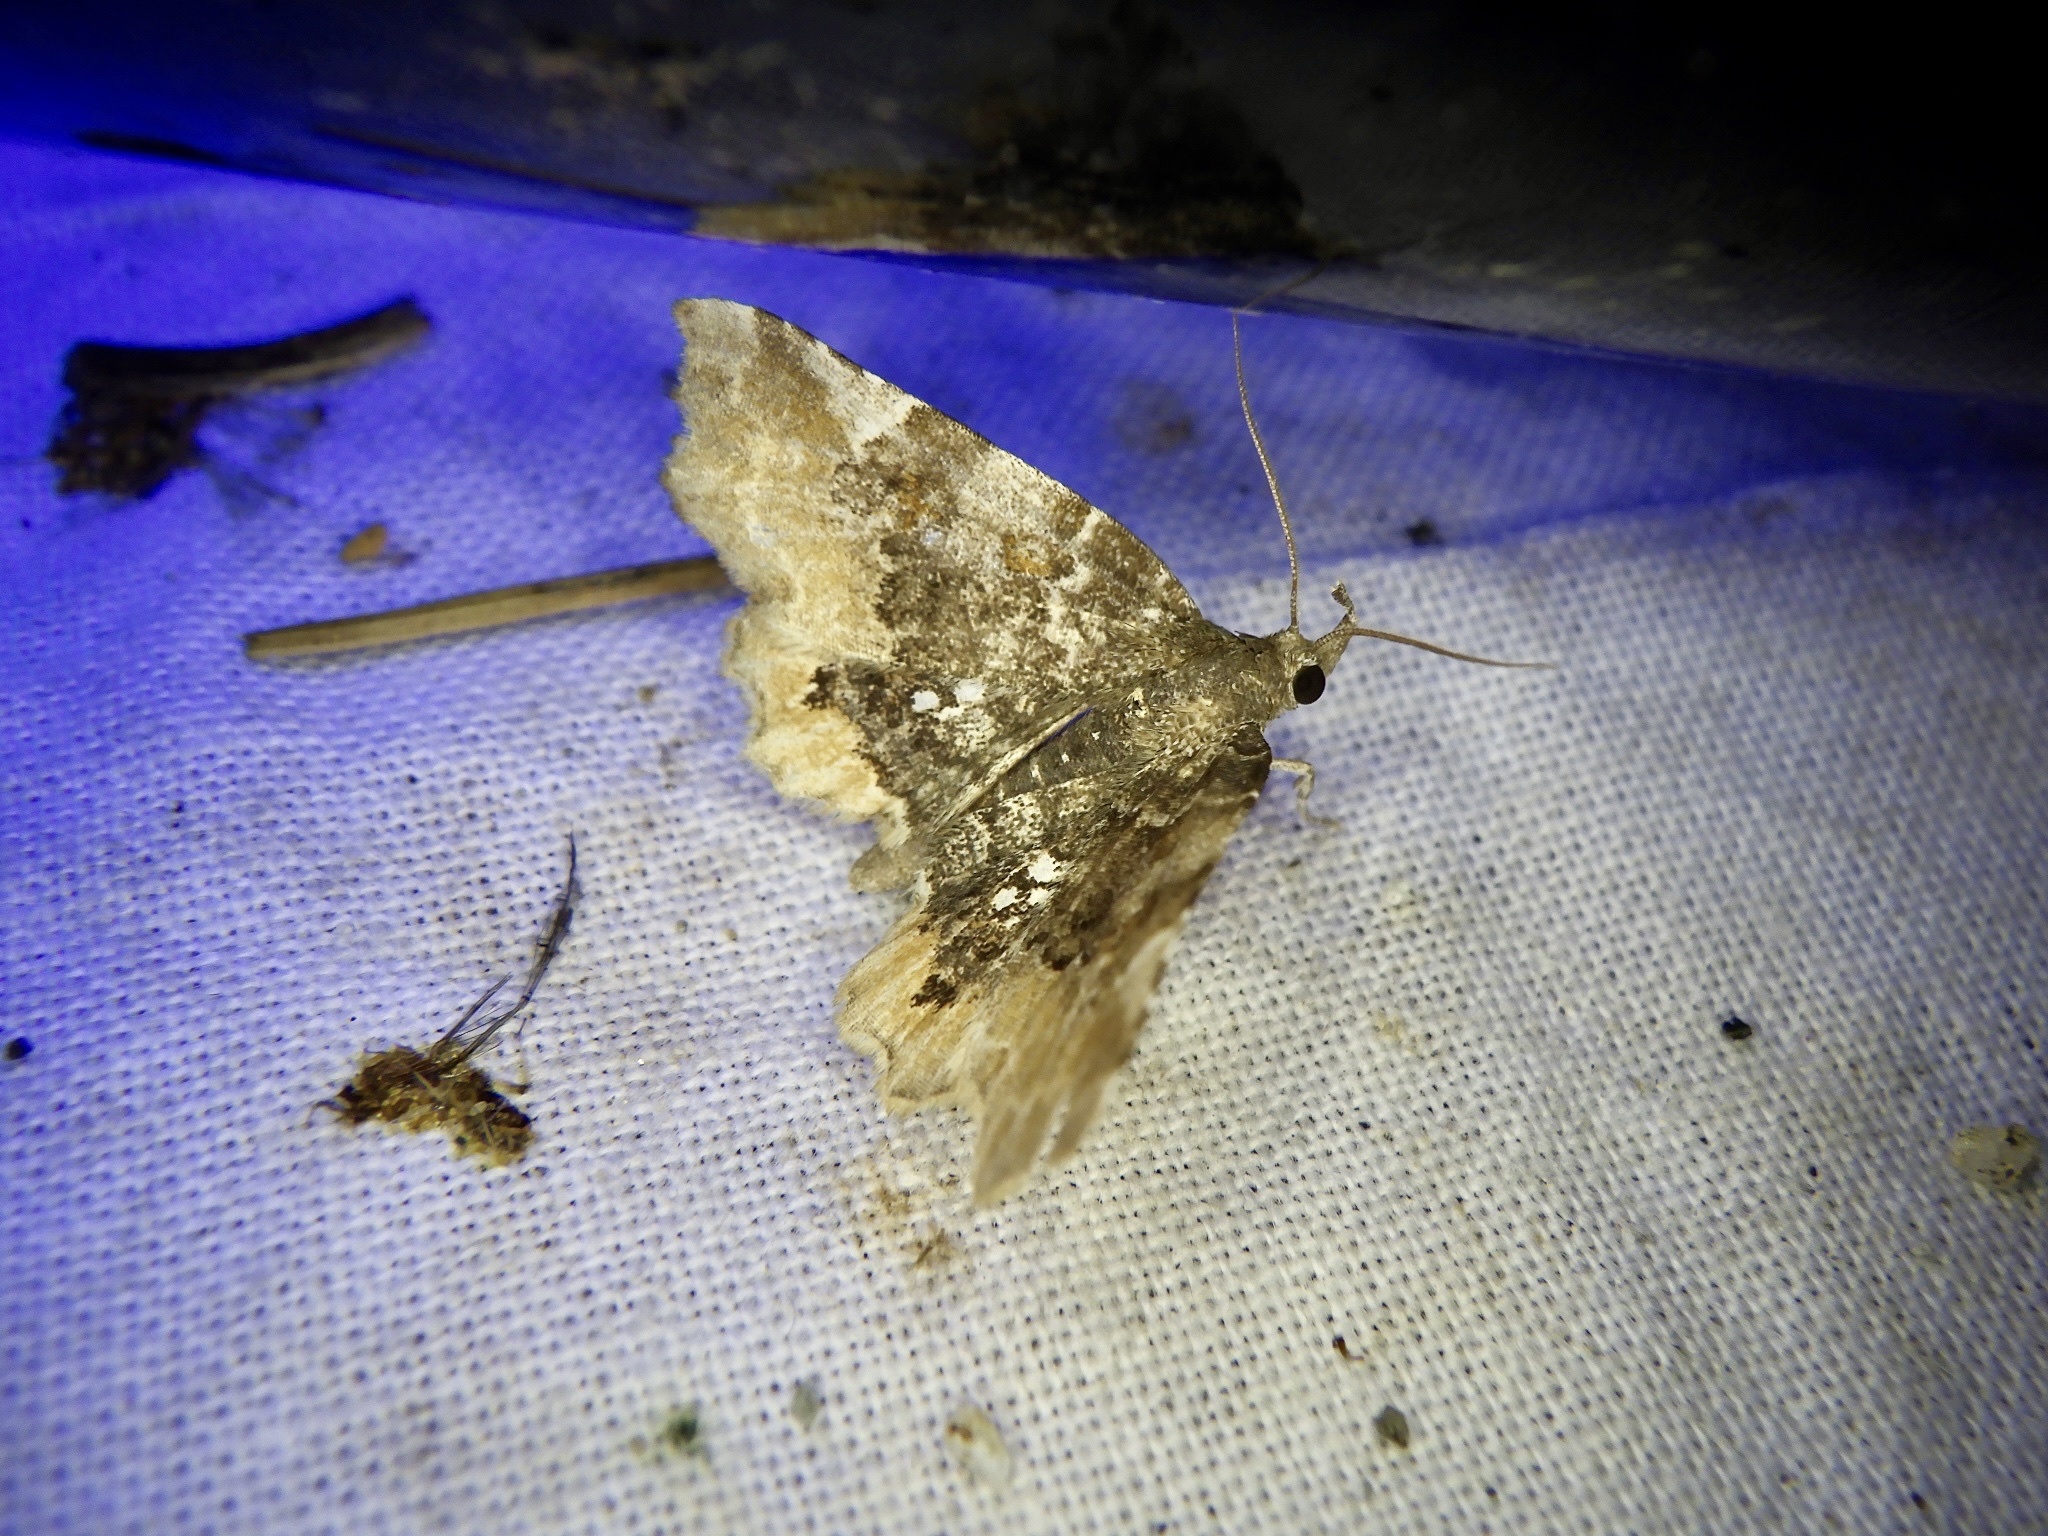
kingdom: Animalia
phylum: Arthropoda
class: Insecta
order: Lepidoptera
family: Erebidae
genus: Pangrapta
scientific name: Pangrapta vasava
